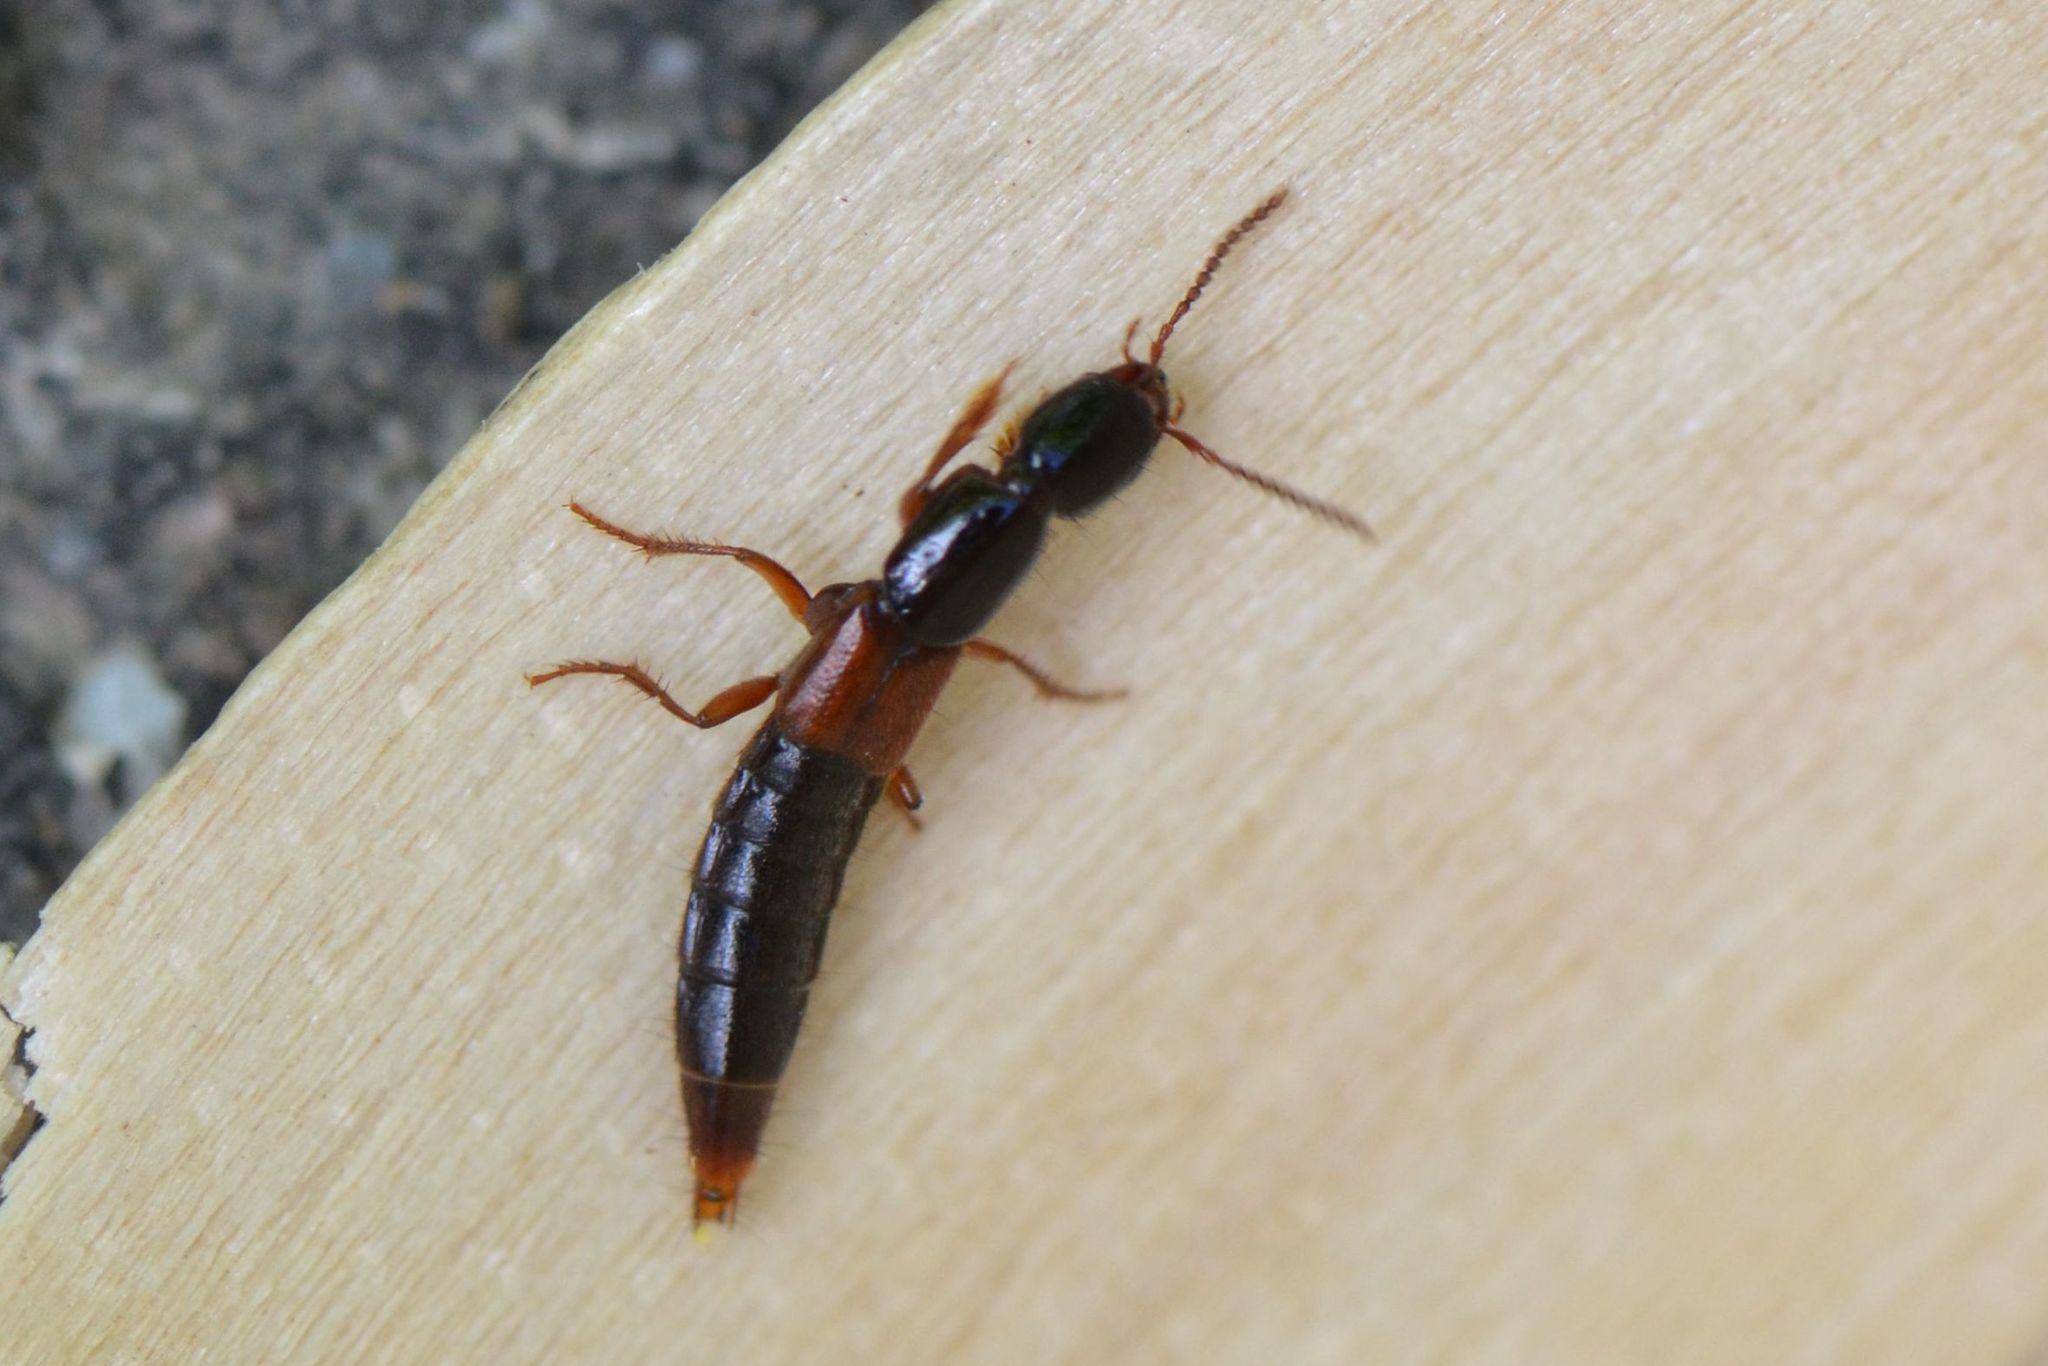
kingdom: Animalia
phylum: Arthropoda
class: Insecta
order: Coleoptera
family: Staphylinidae
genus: Othius
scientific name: Othius punctulatus
